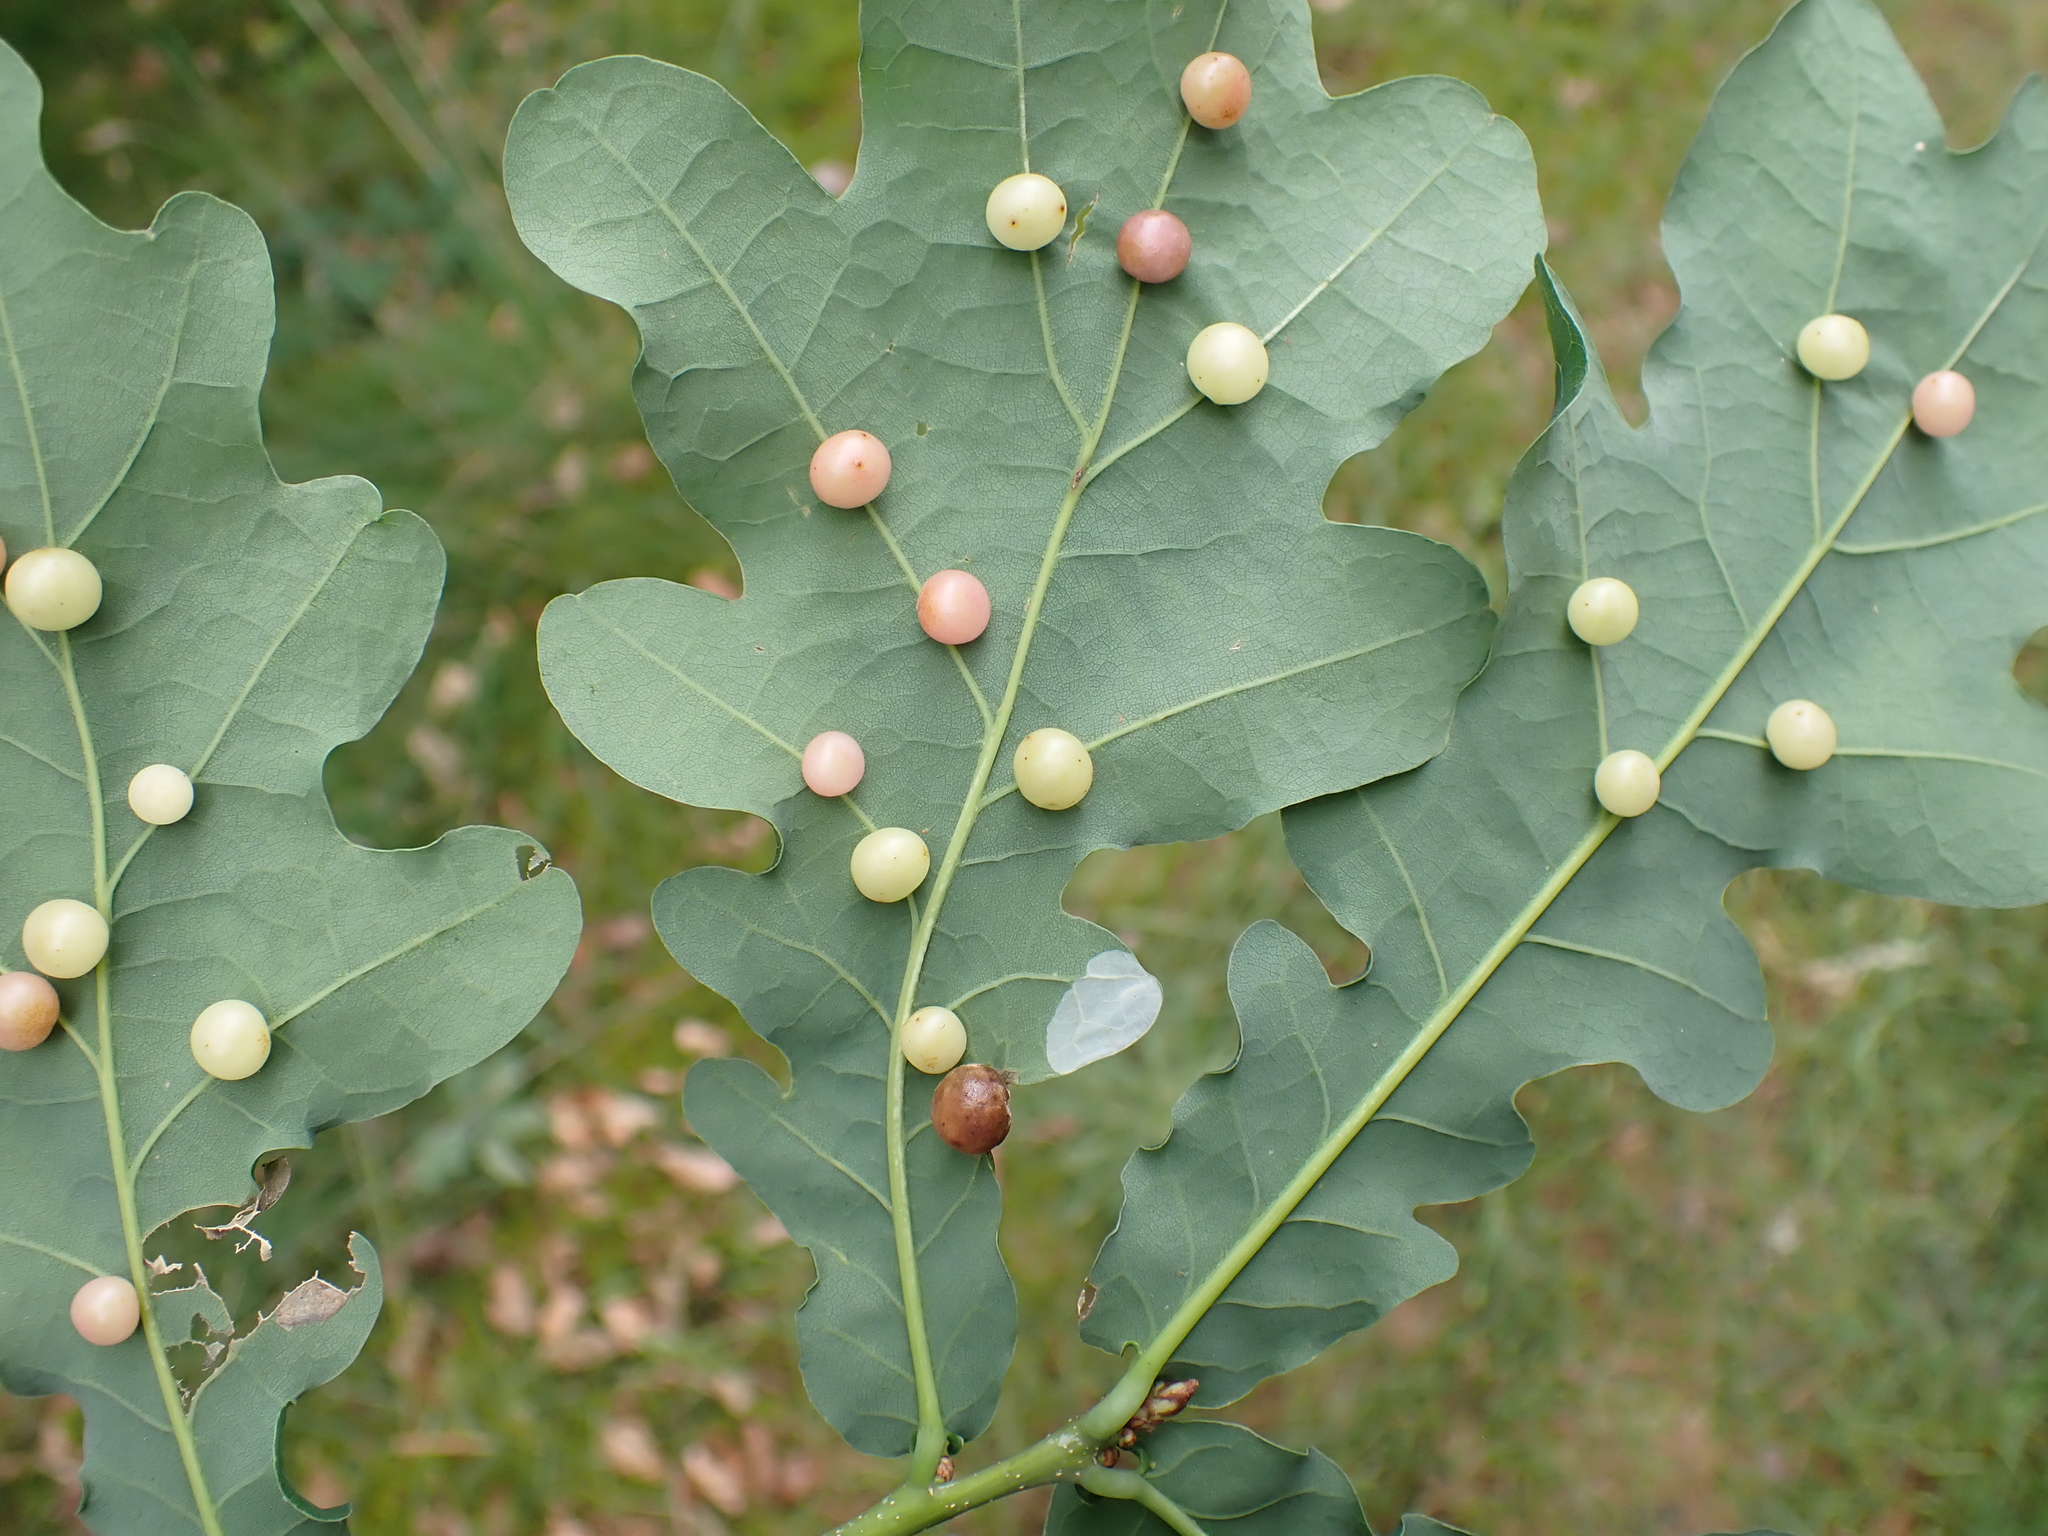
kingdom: Animalia
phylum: Arthropoda
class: Insecta
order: Hymenoptera
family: Cynipidae
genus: Cynips
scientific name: Cynips divisa
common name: Red currant gall
